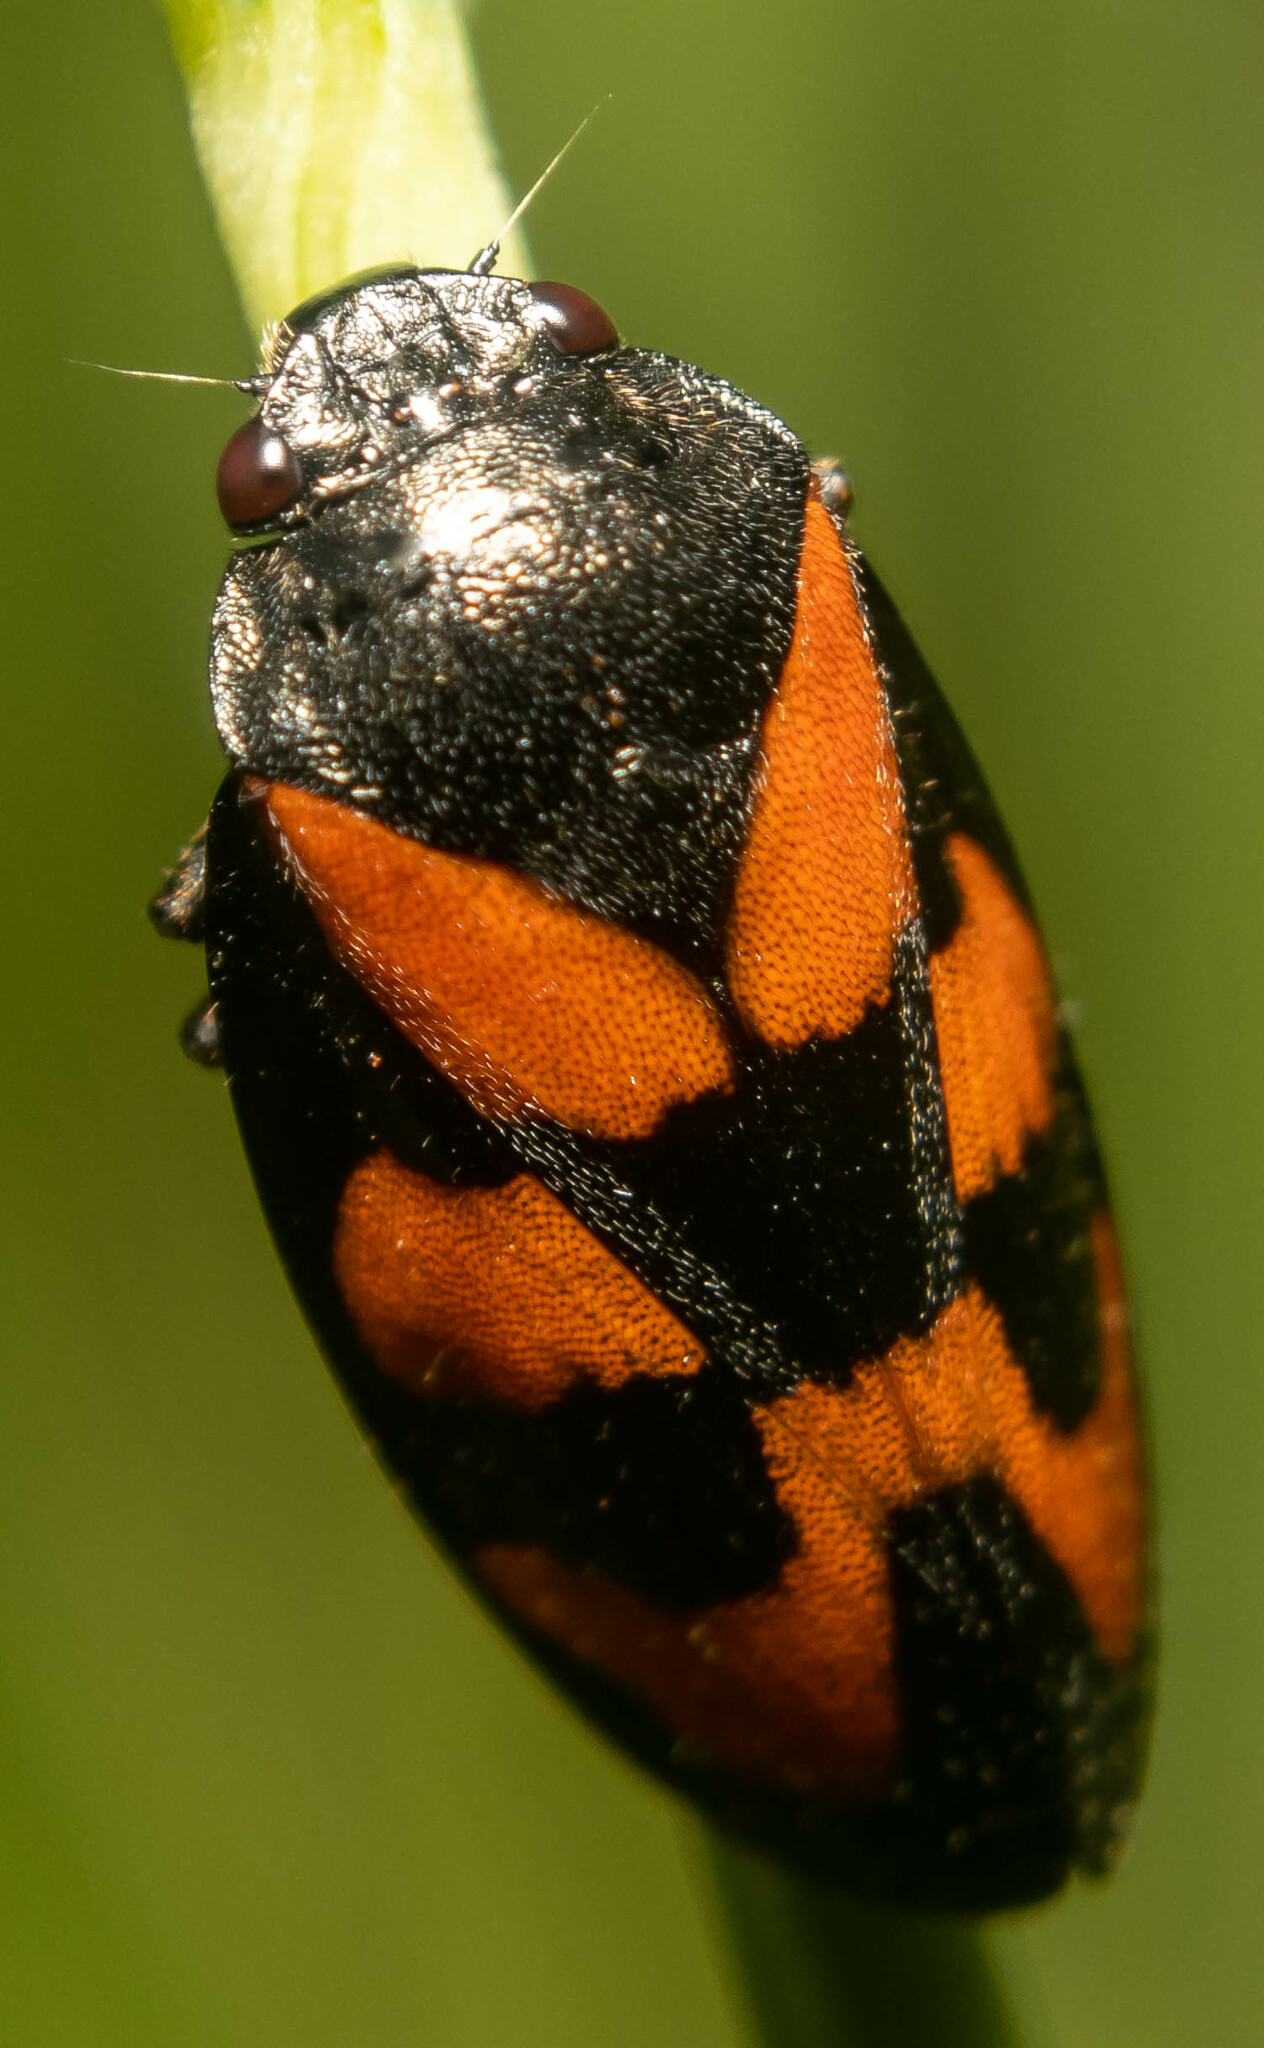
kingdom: Animalia
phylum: Arthropoda
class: Insecta
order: Hemiptera
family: Cercopidae
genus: Cercopis
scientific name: Cercopis vulnerata
